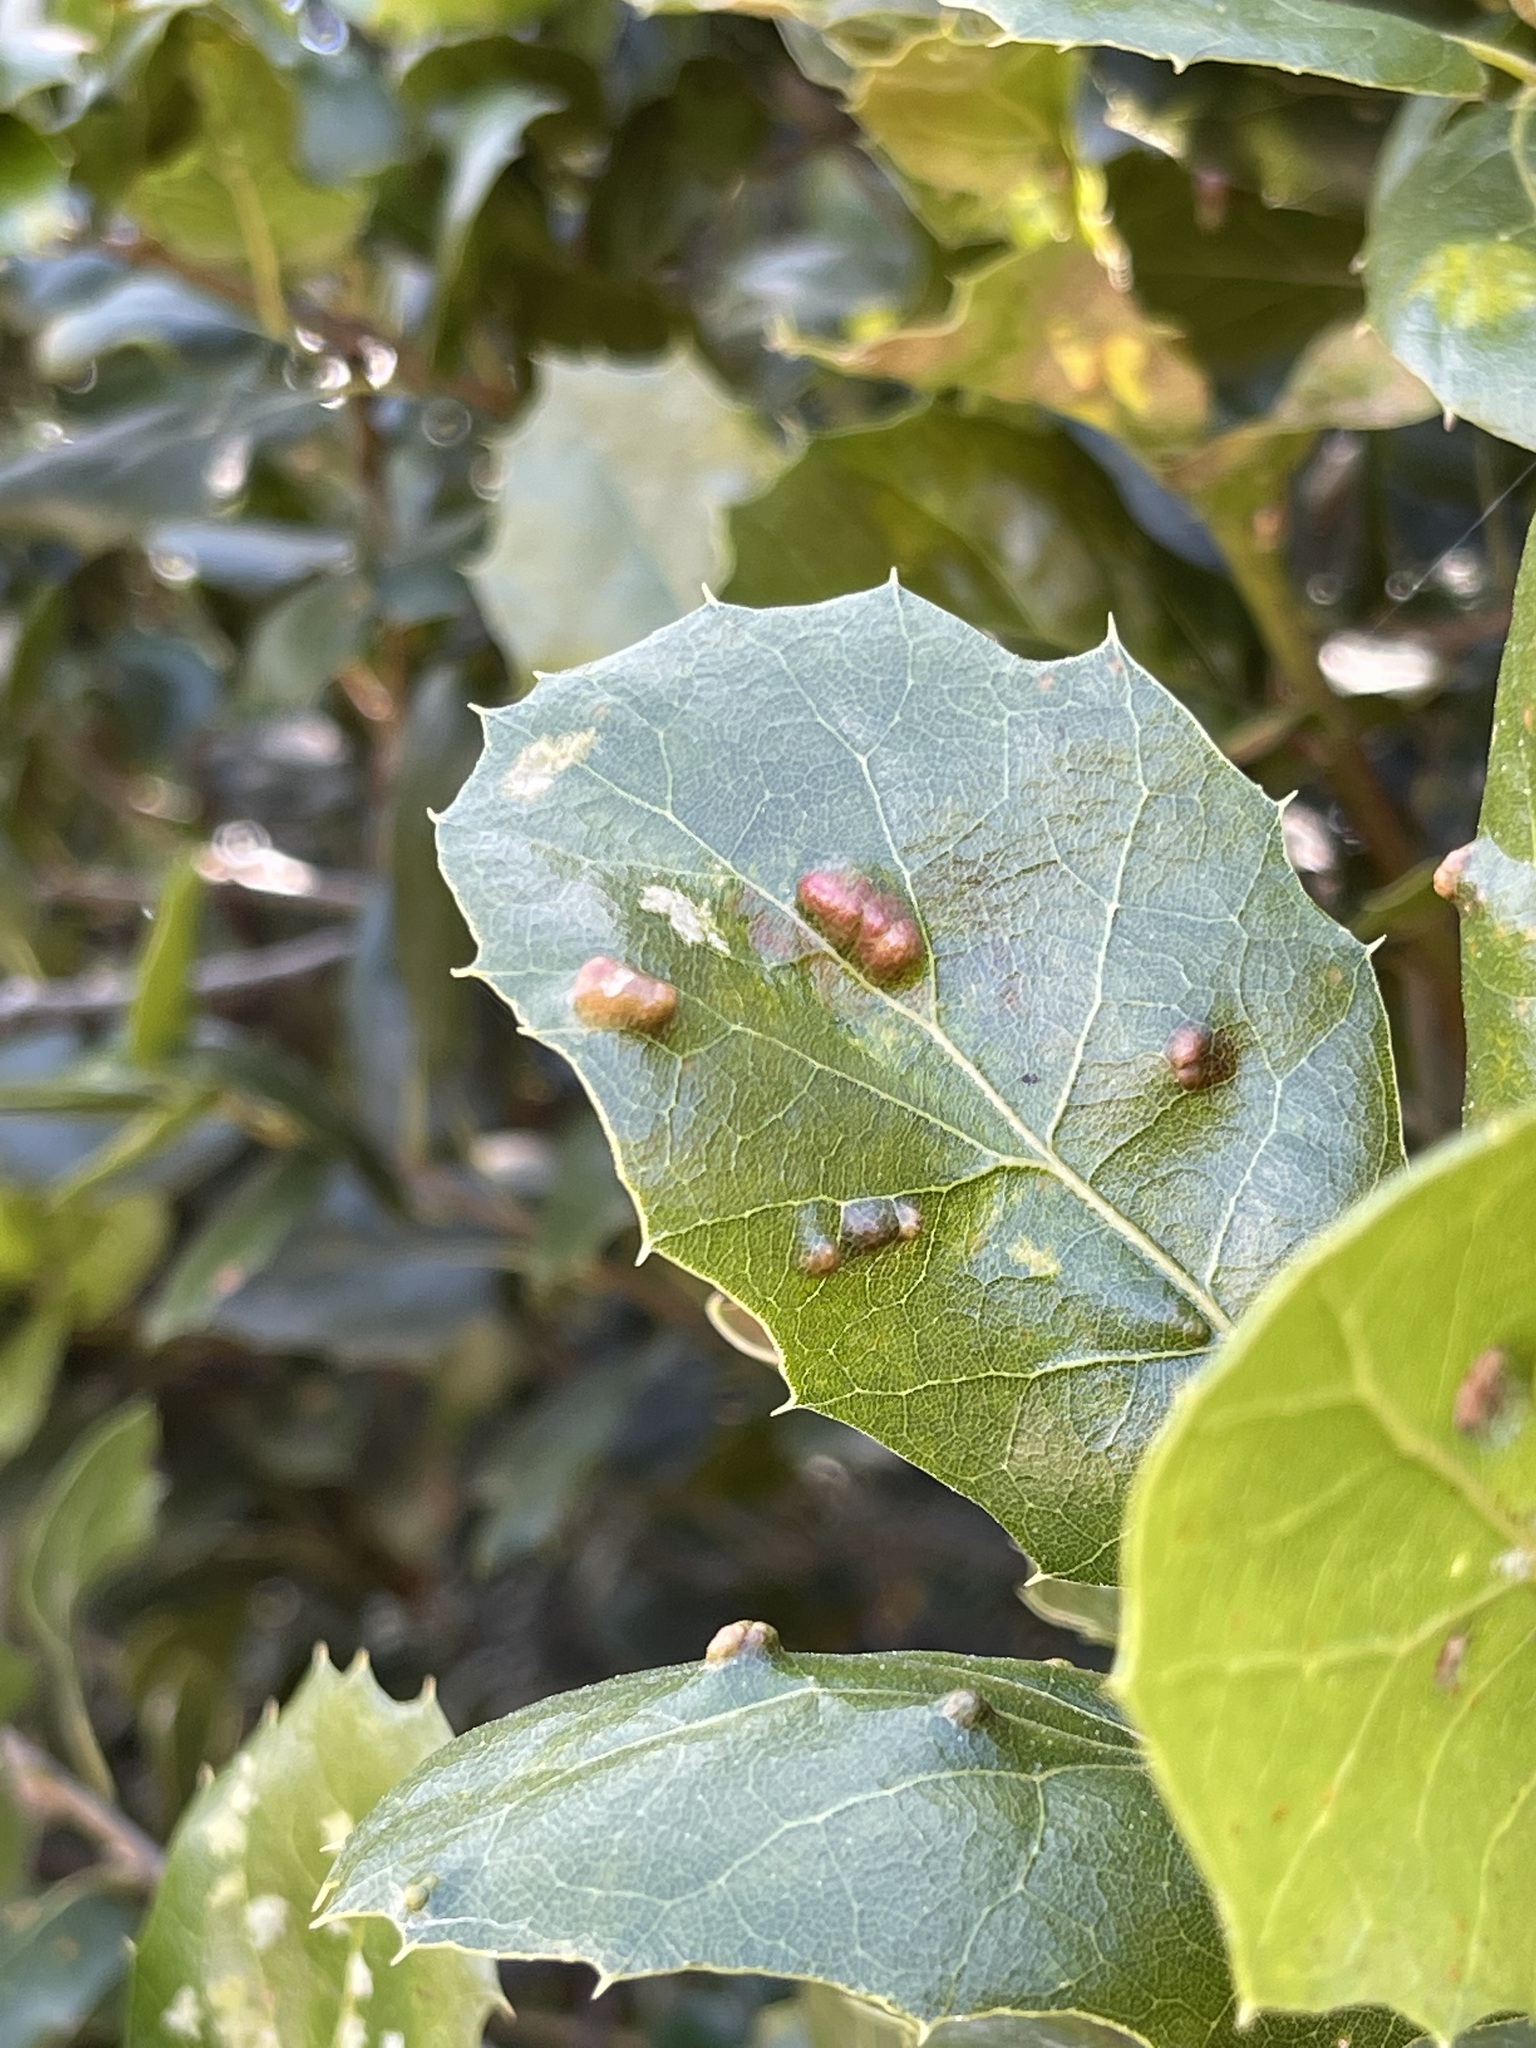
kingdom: Animalia
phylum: Arthropoda
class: Arachnida
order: Trombidiformes
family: Eriophyidae
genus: Aceria
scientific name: Aceria
